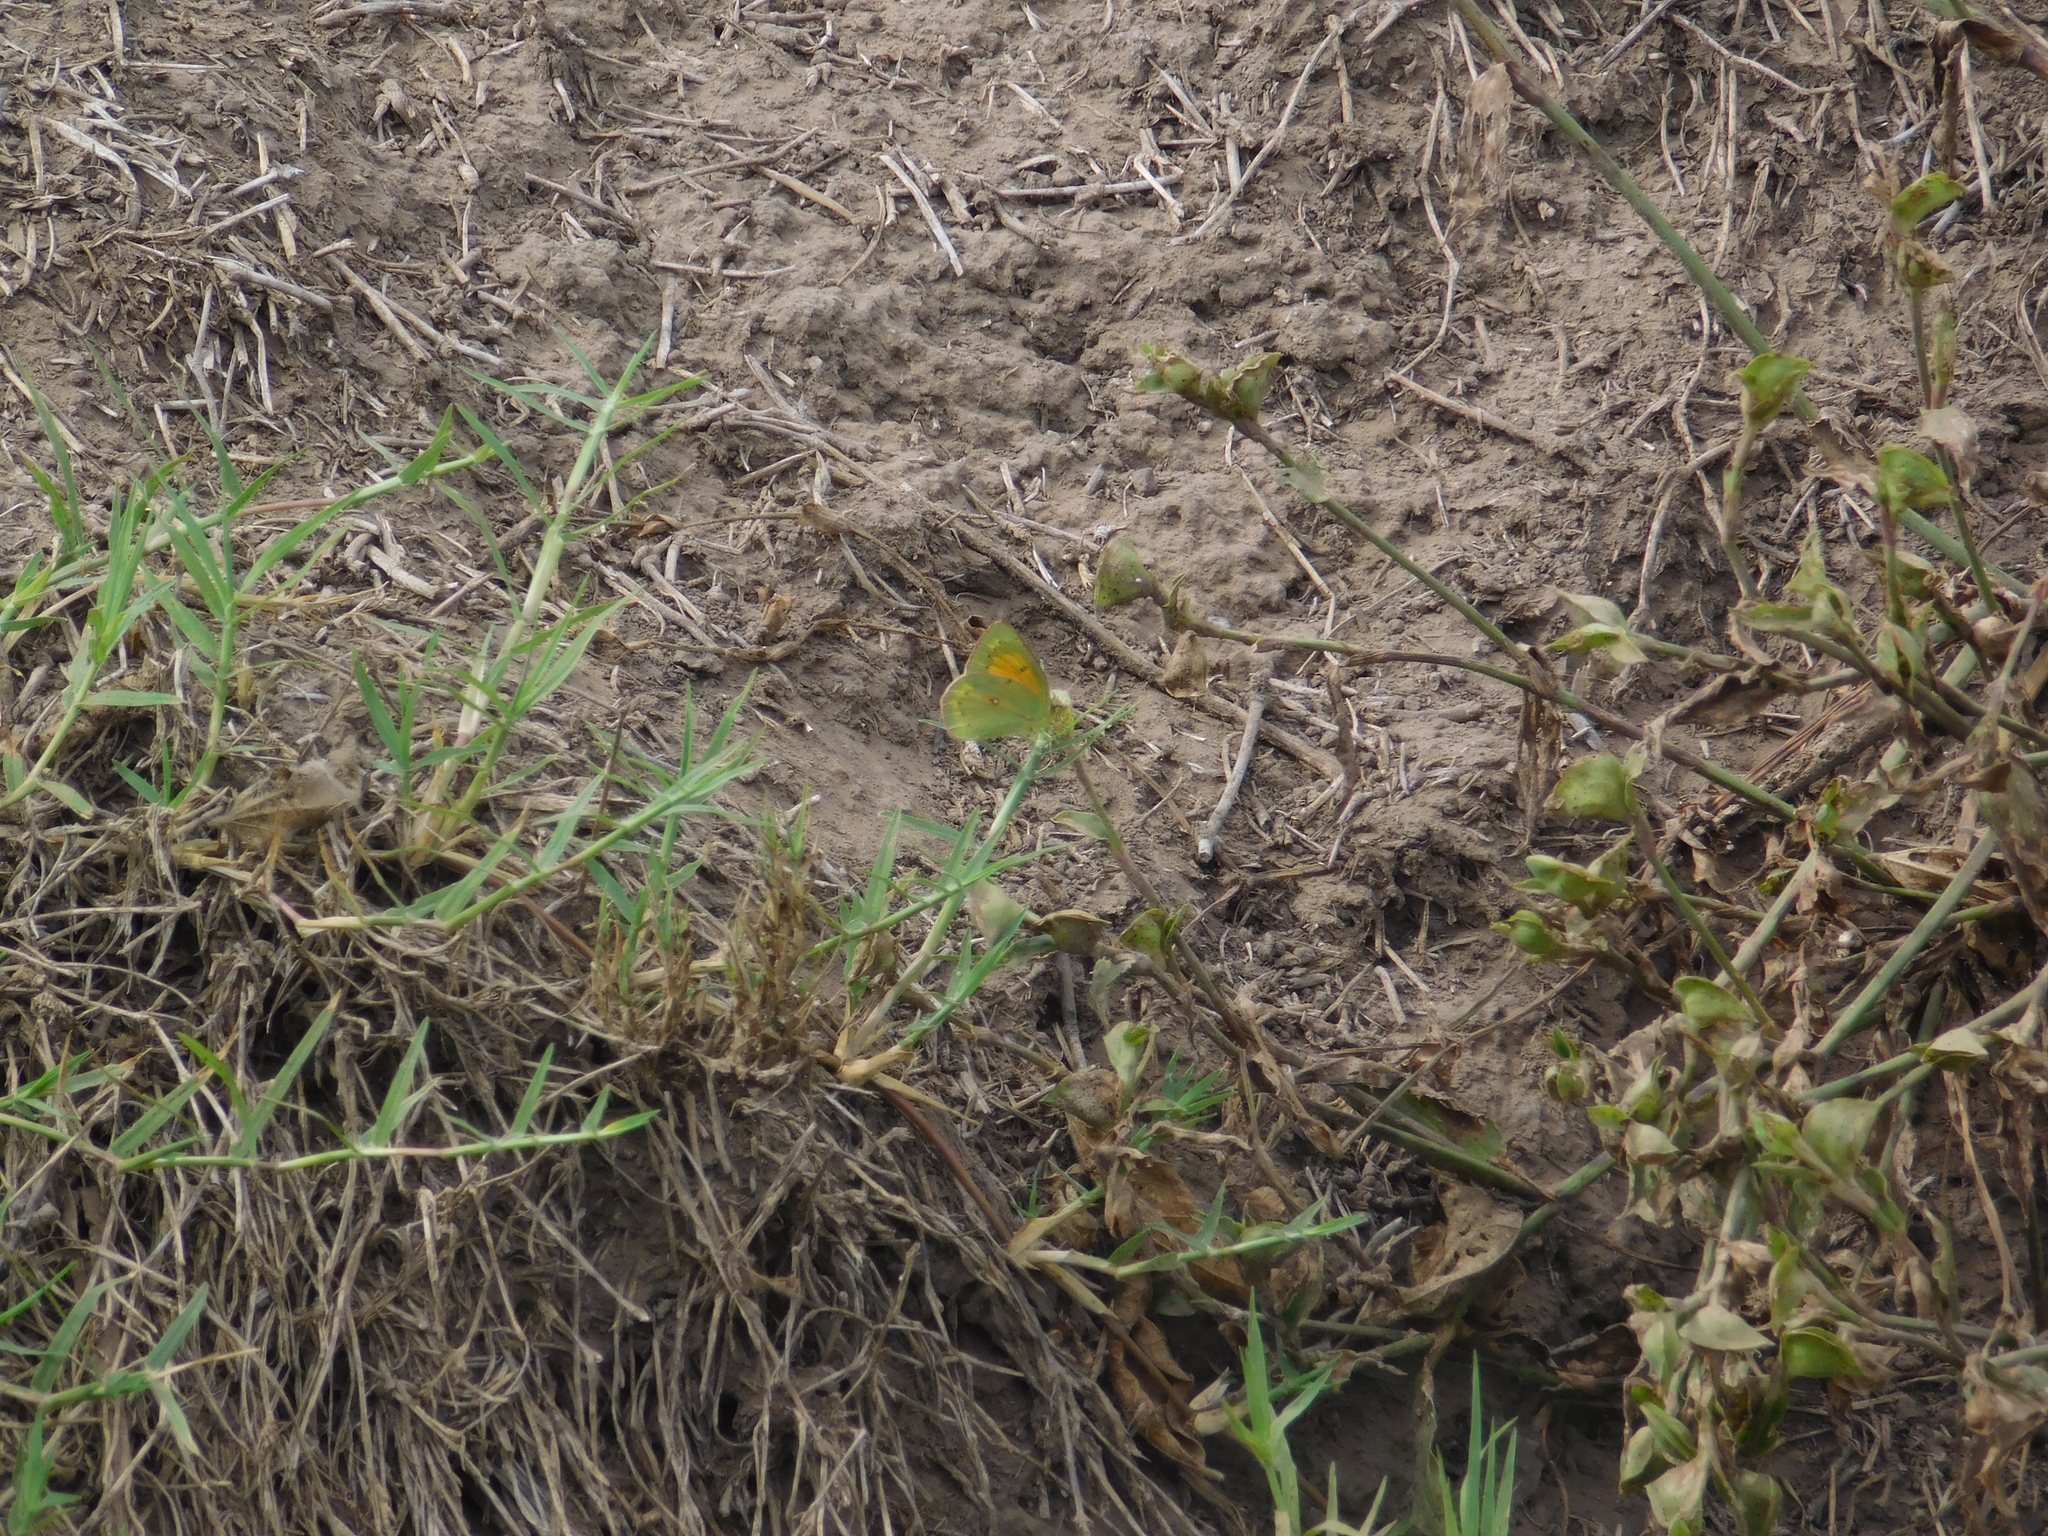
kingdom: Animalia
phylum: Arthropoda
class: Insecta
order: Lepidoptera
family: Pieridae
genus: Colias
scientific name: Colias lesbia
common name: Lesbia clouded yellow
